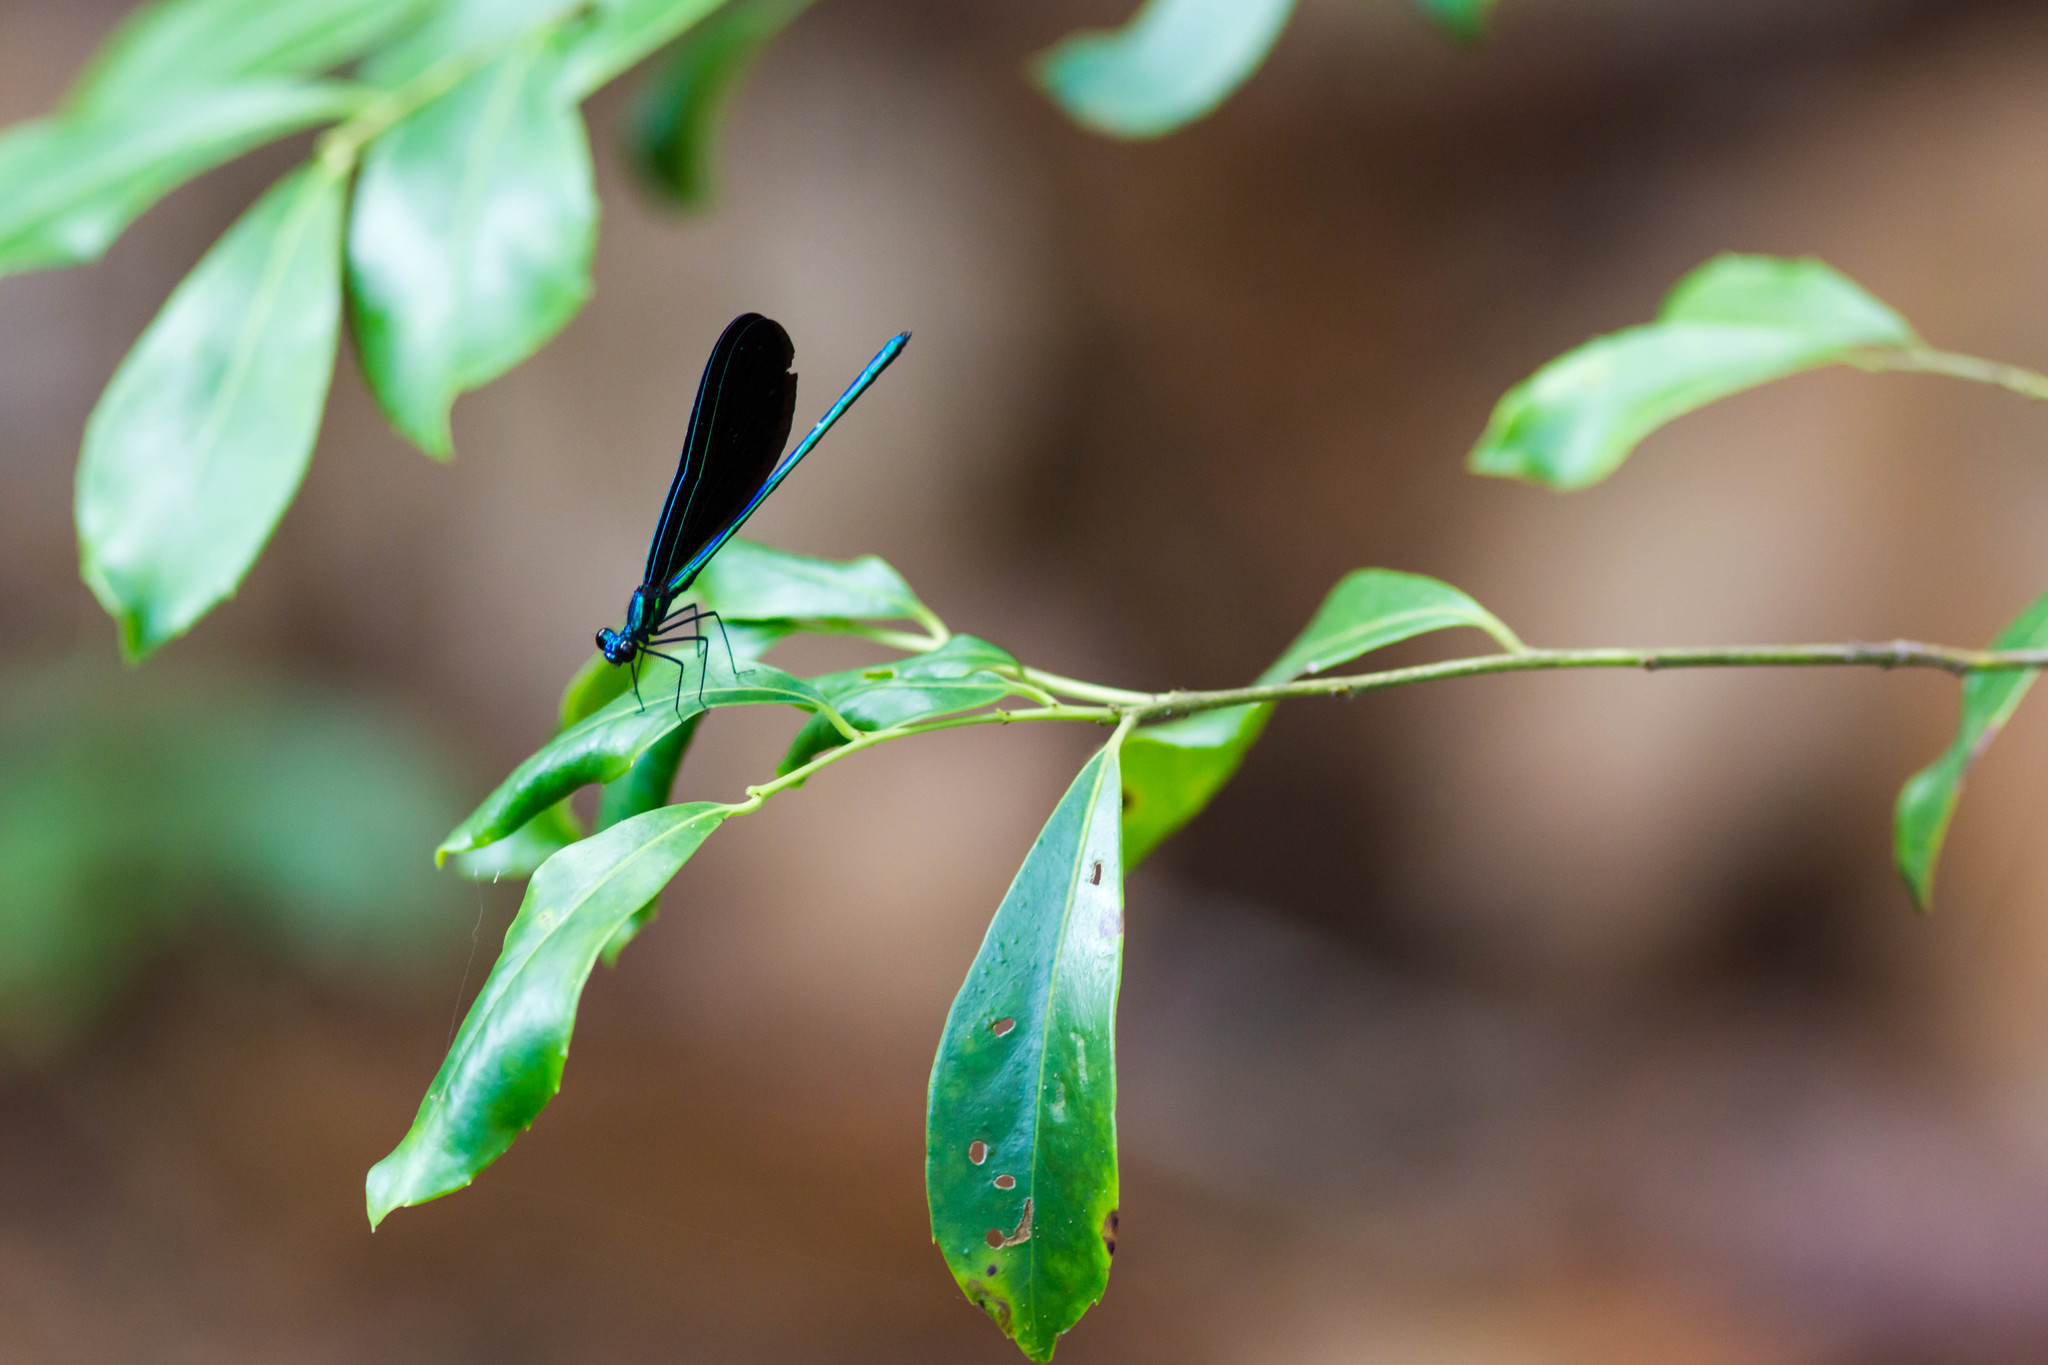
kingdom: Animalia
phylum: Arthropoda
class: Insecta
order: Odonata
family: Calopterygidae
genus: Calopteryx
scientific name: Calopteryx maculata
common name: Ebony jewelwing
